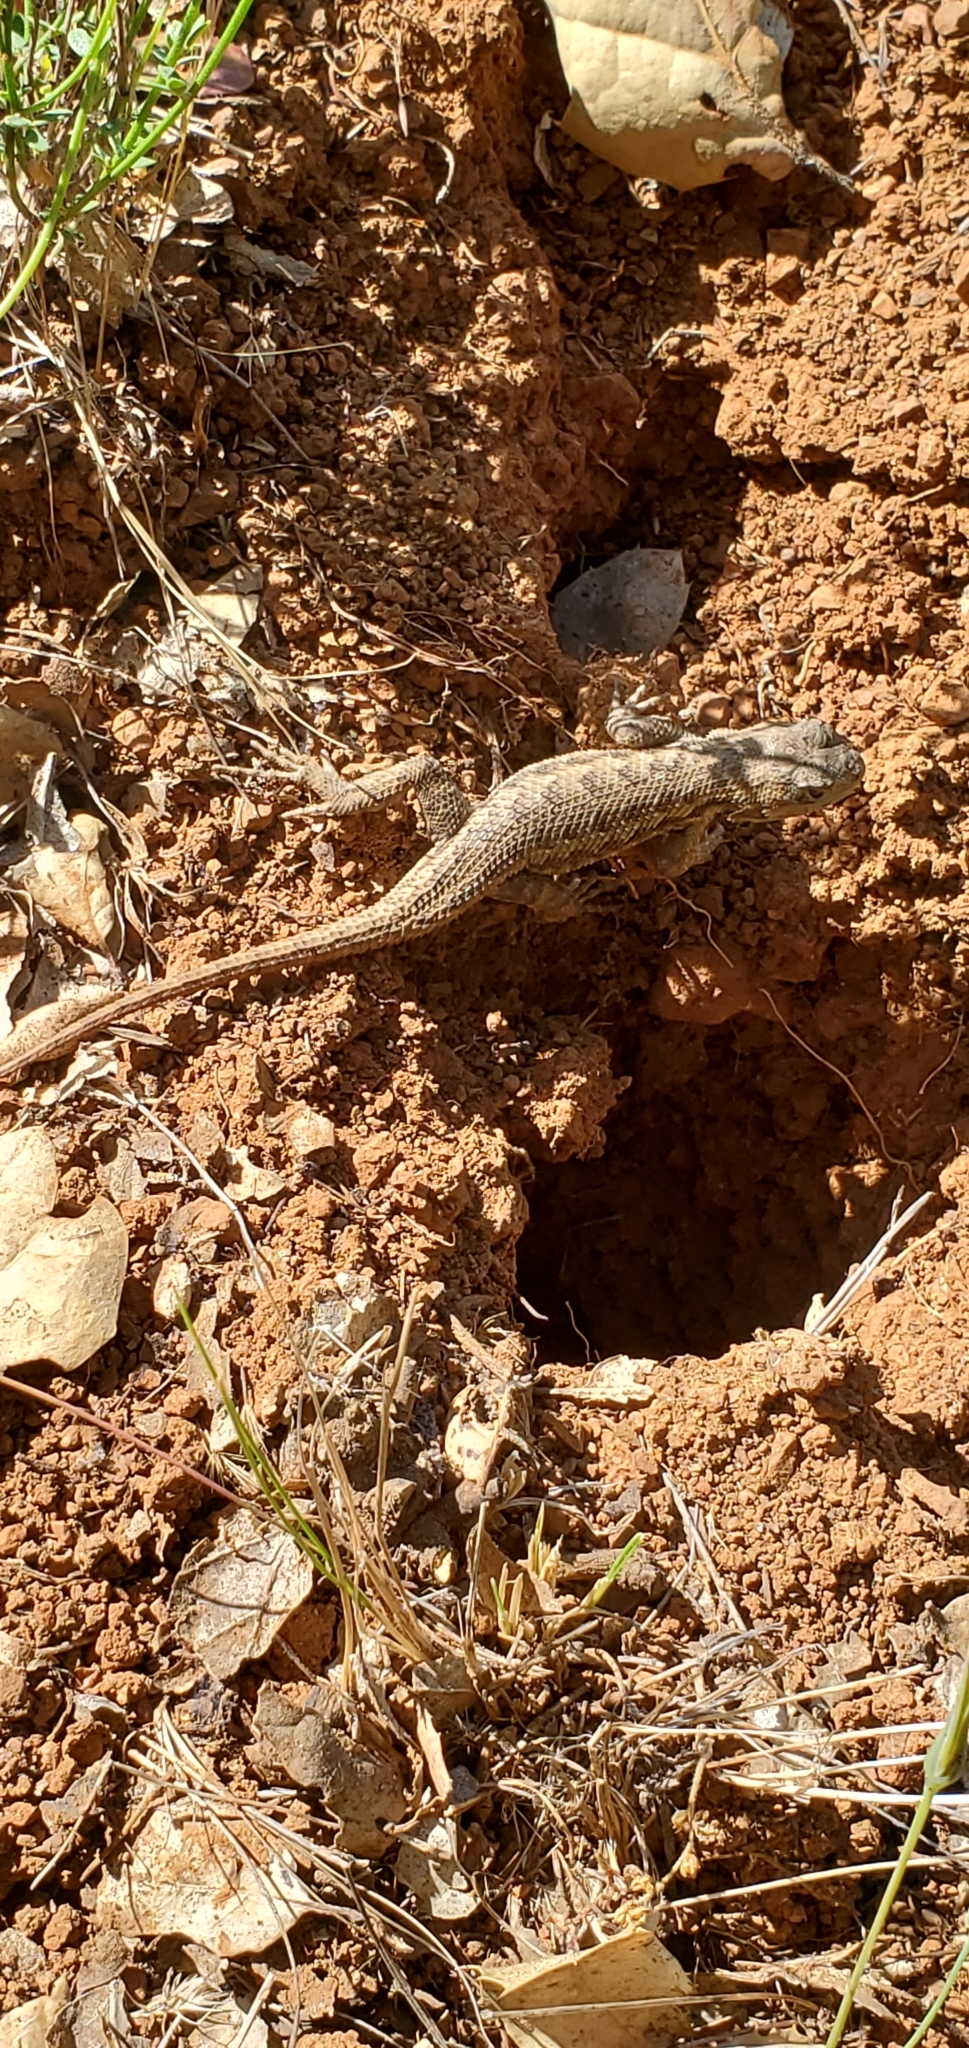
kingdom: Animalia
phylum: Chordata
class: Squamata
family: Phrynosomatidae
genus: Sceloporus
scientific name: Sceloporus occidentalis
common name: Western fence lizard
